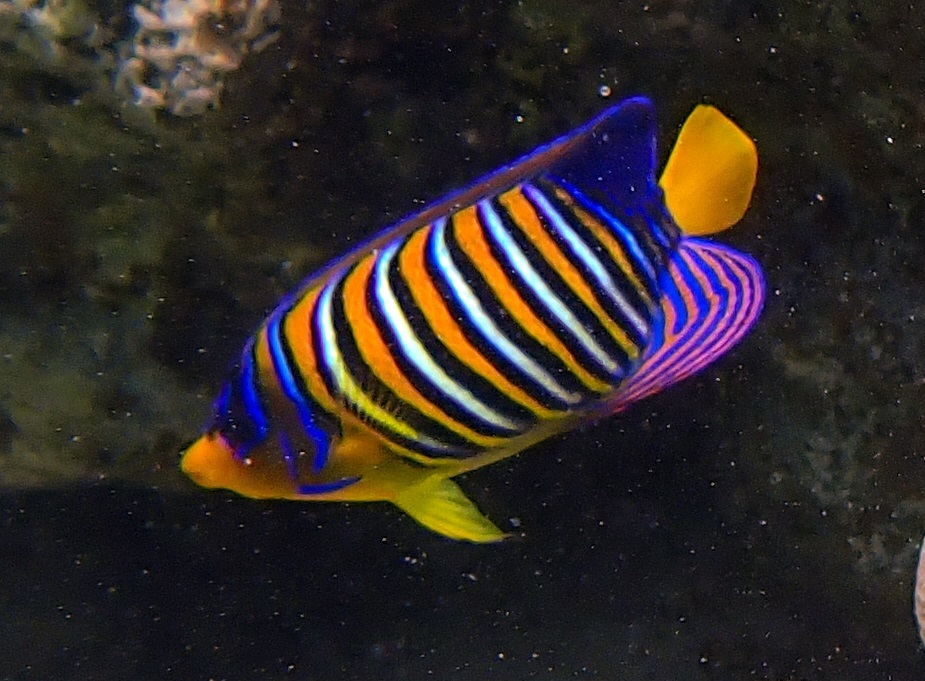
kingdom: Animalia
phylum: Chordata
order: Perciformes
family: Pomacanthidae
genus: Pygoplites
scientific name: Pygoplites diacanthus
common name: Regal angelfish
